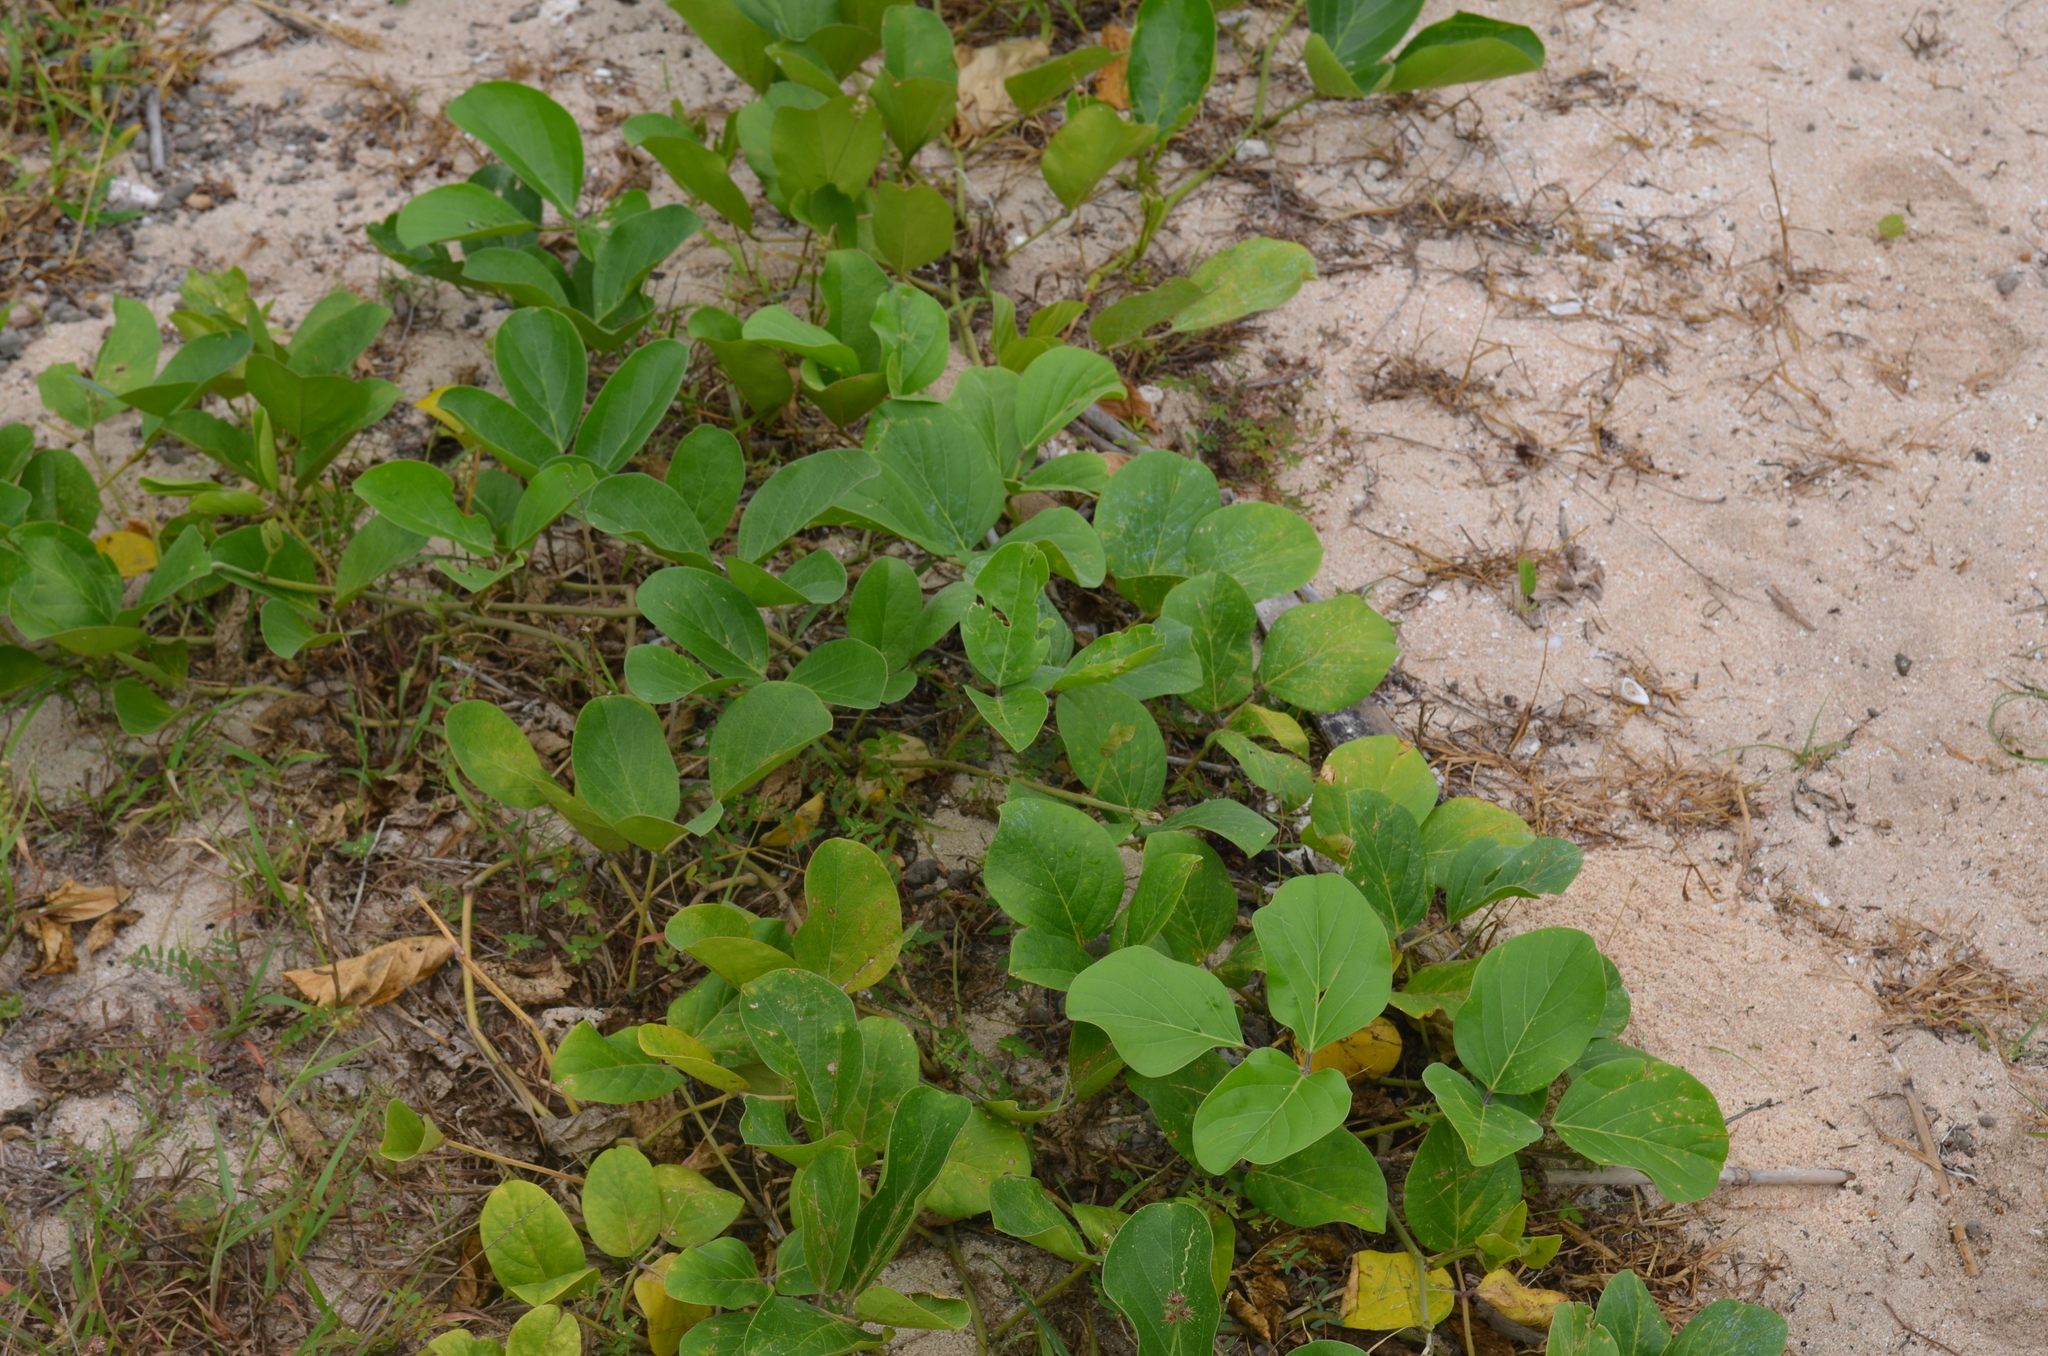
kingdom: Plantae
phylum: Tracheophyta
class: Magnoliopsida
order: Solanales
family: Convolvulaceae
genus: Ipomoea
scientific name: Ipomoea pes-caprae
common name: Beach morning glory
